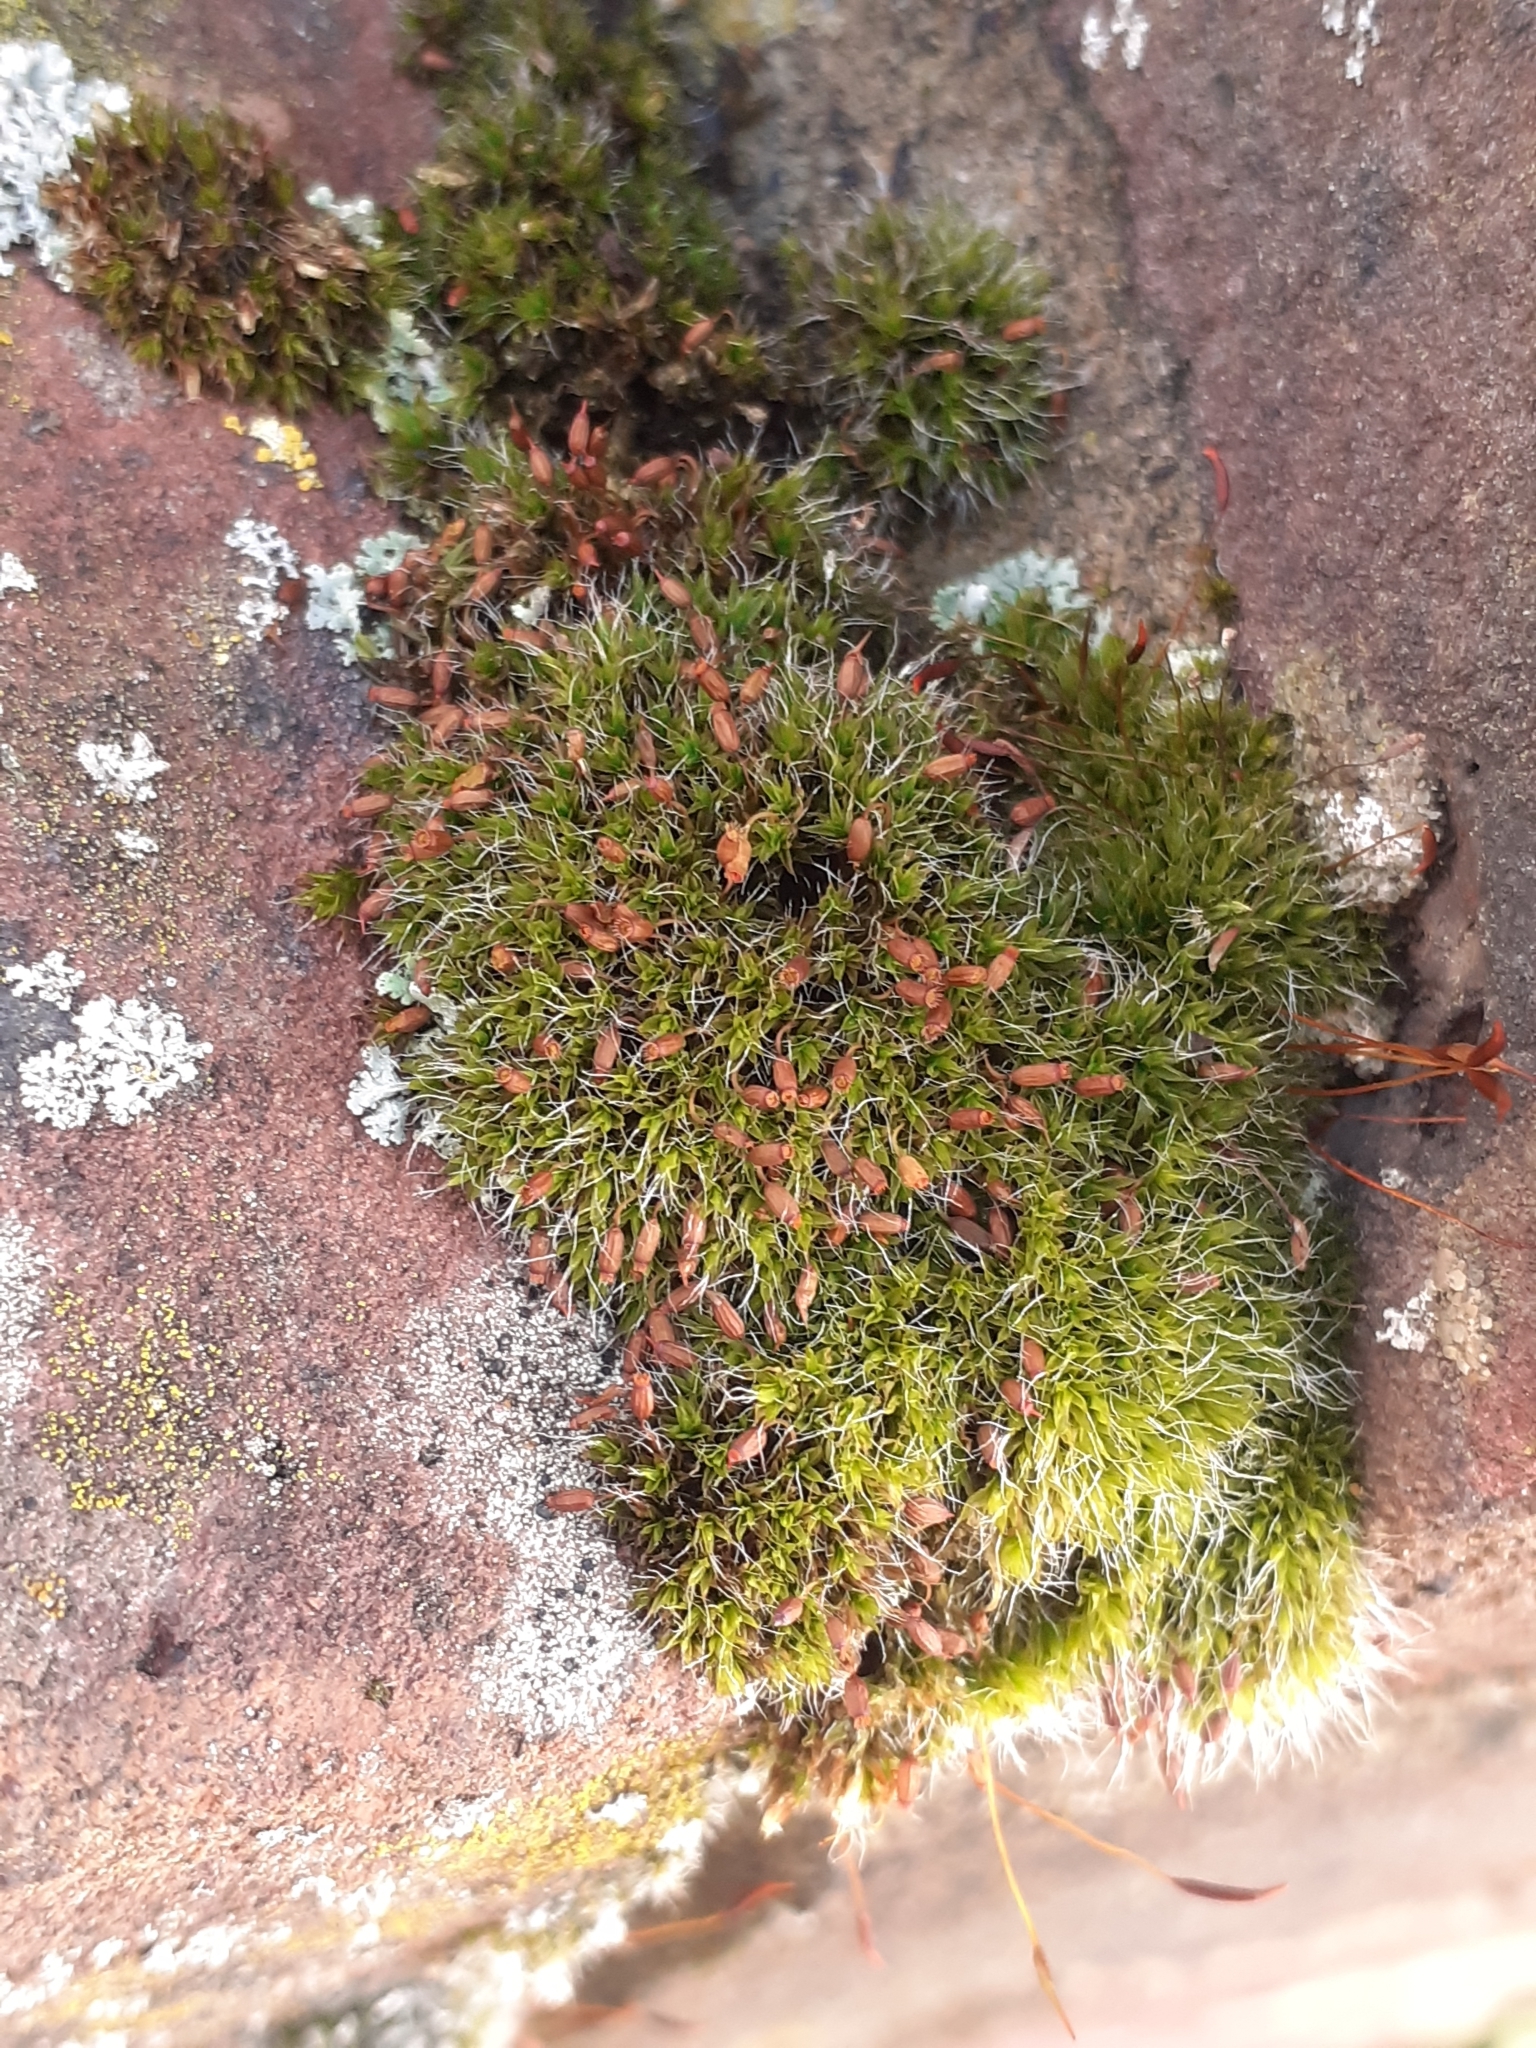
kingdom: Plantae
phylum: Bryophyta
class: Bryopsida
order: Grimmiales
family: Grimmiaceae
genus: Grimmia
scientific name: Grimmia pulvinata
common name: Grey-cushioned grimmia
